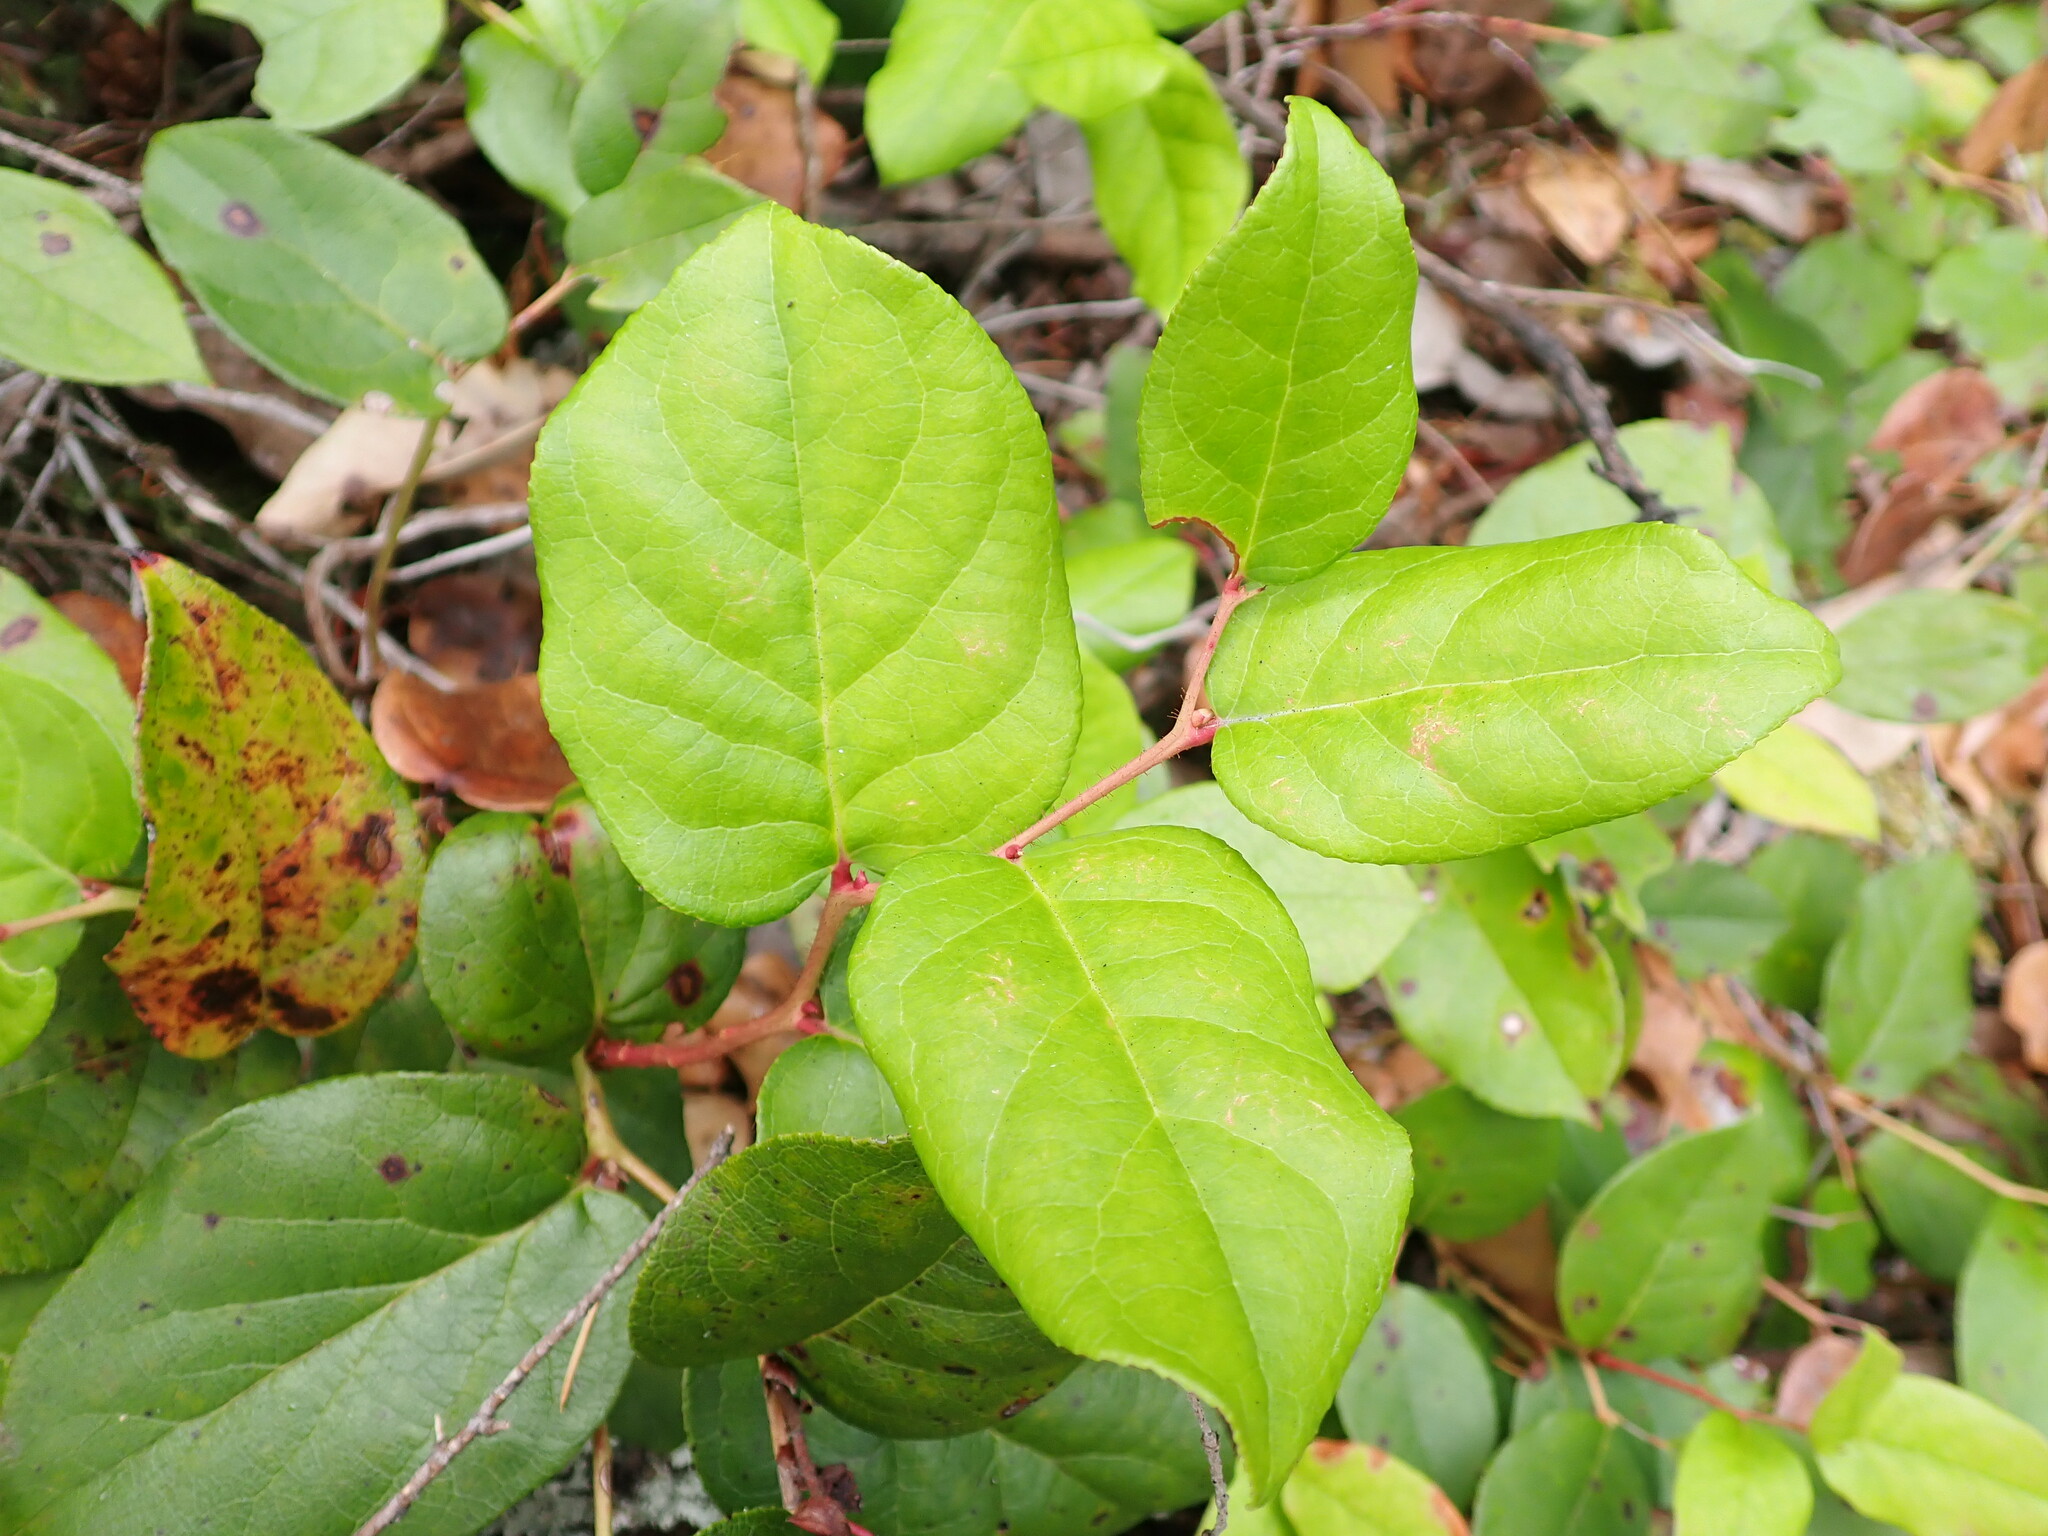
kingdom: Plantae
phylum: Tracheophyta
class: Magnoliopsida
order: Ericales
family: Ericaceae
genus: Gaultheria
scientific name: Gaultheria shallon
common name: Shallon
